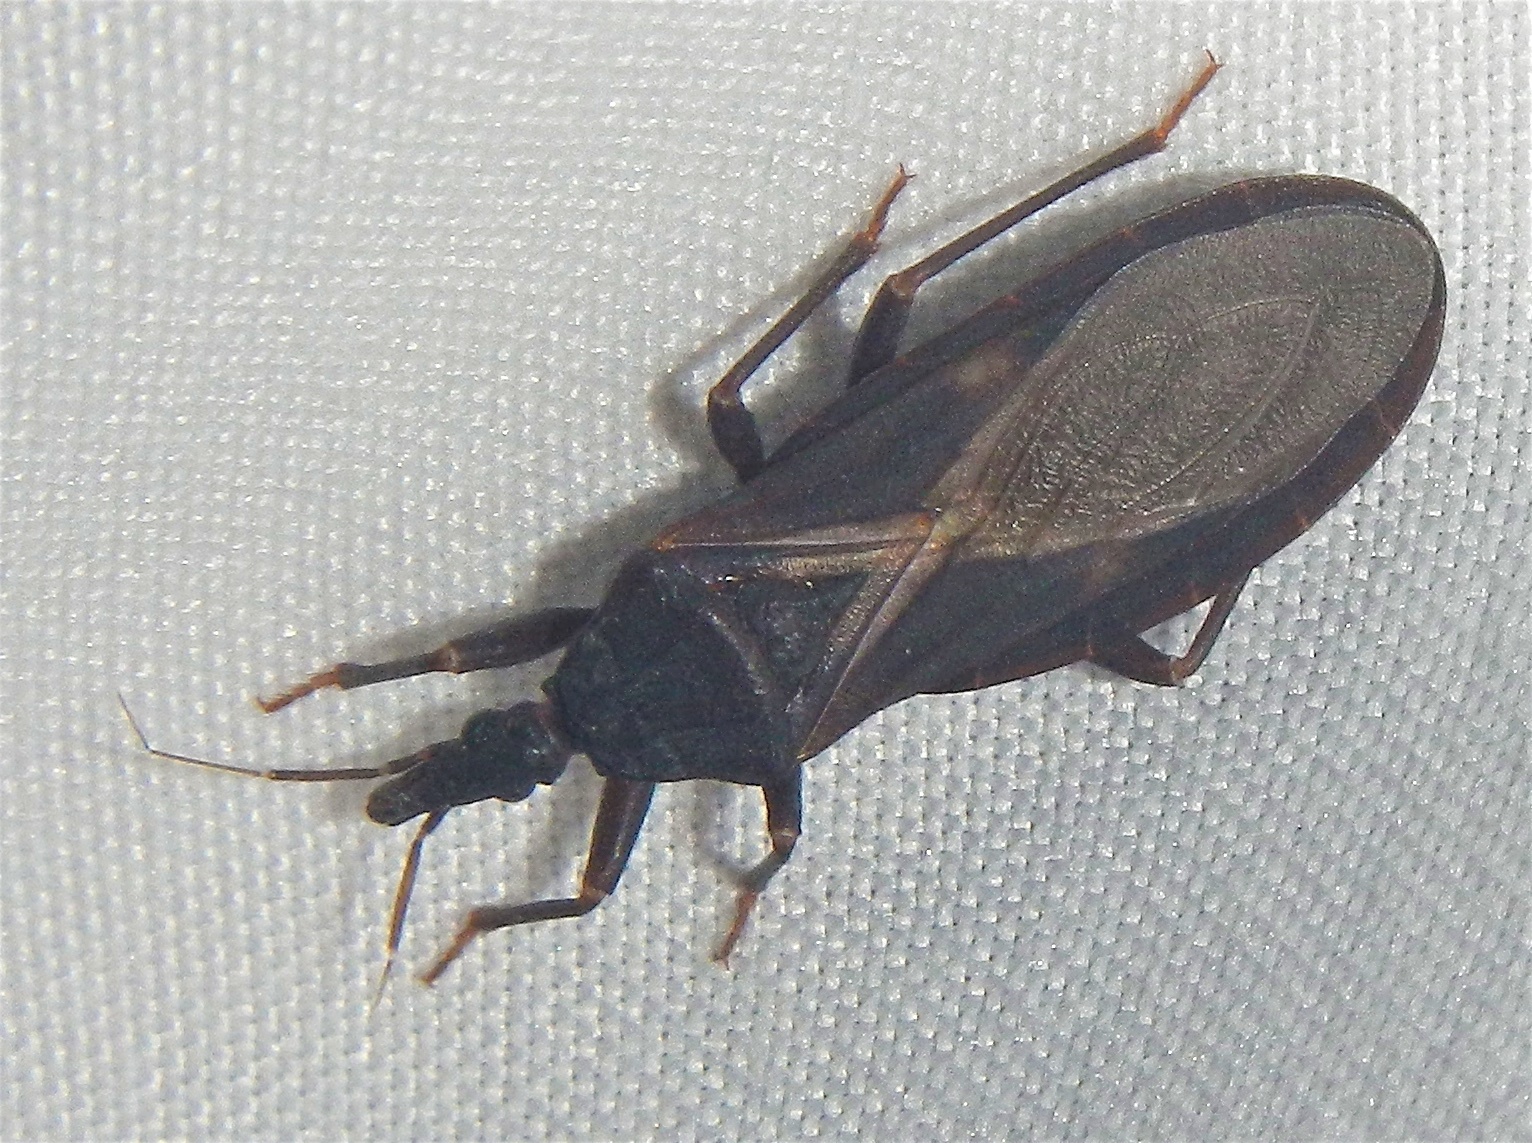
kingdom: Animalia
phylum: Arthropoda
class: Insecta
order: Hemiptera
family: Reduviidae
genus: Triatoma
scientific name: Triatoma protracta
